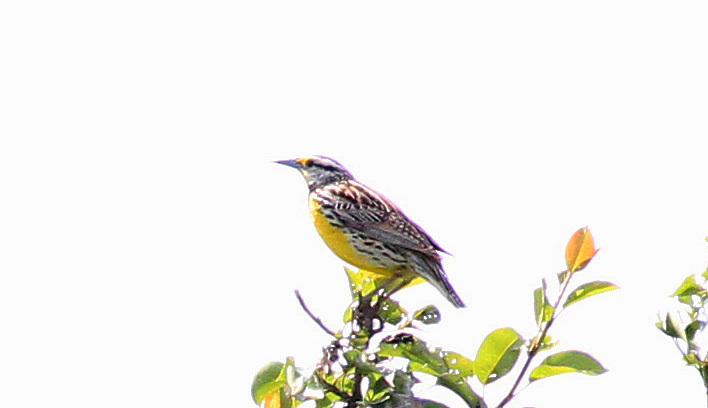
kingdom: Animalia
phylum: Chordata
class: Aves
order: Passeriformes
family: Icteridae
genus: Sturnella
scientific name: Sturnella magna
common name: Eastern meadowlark
